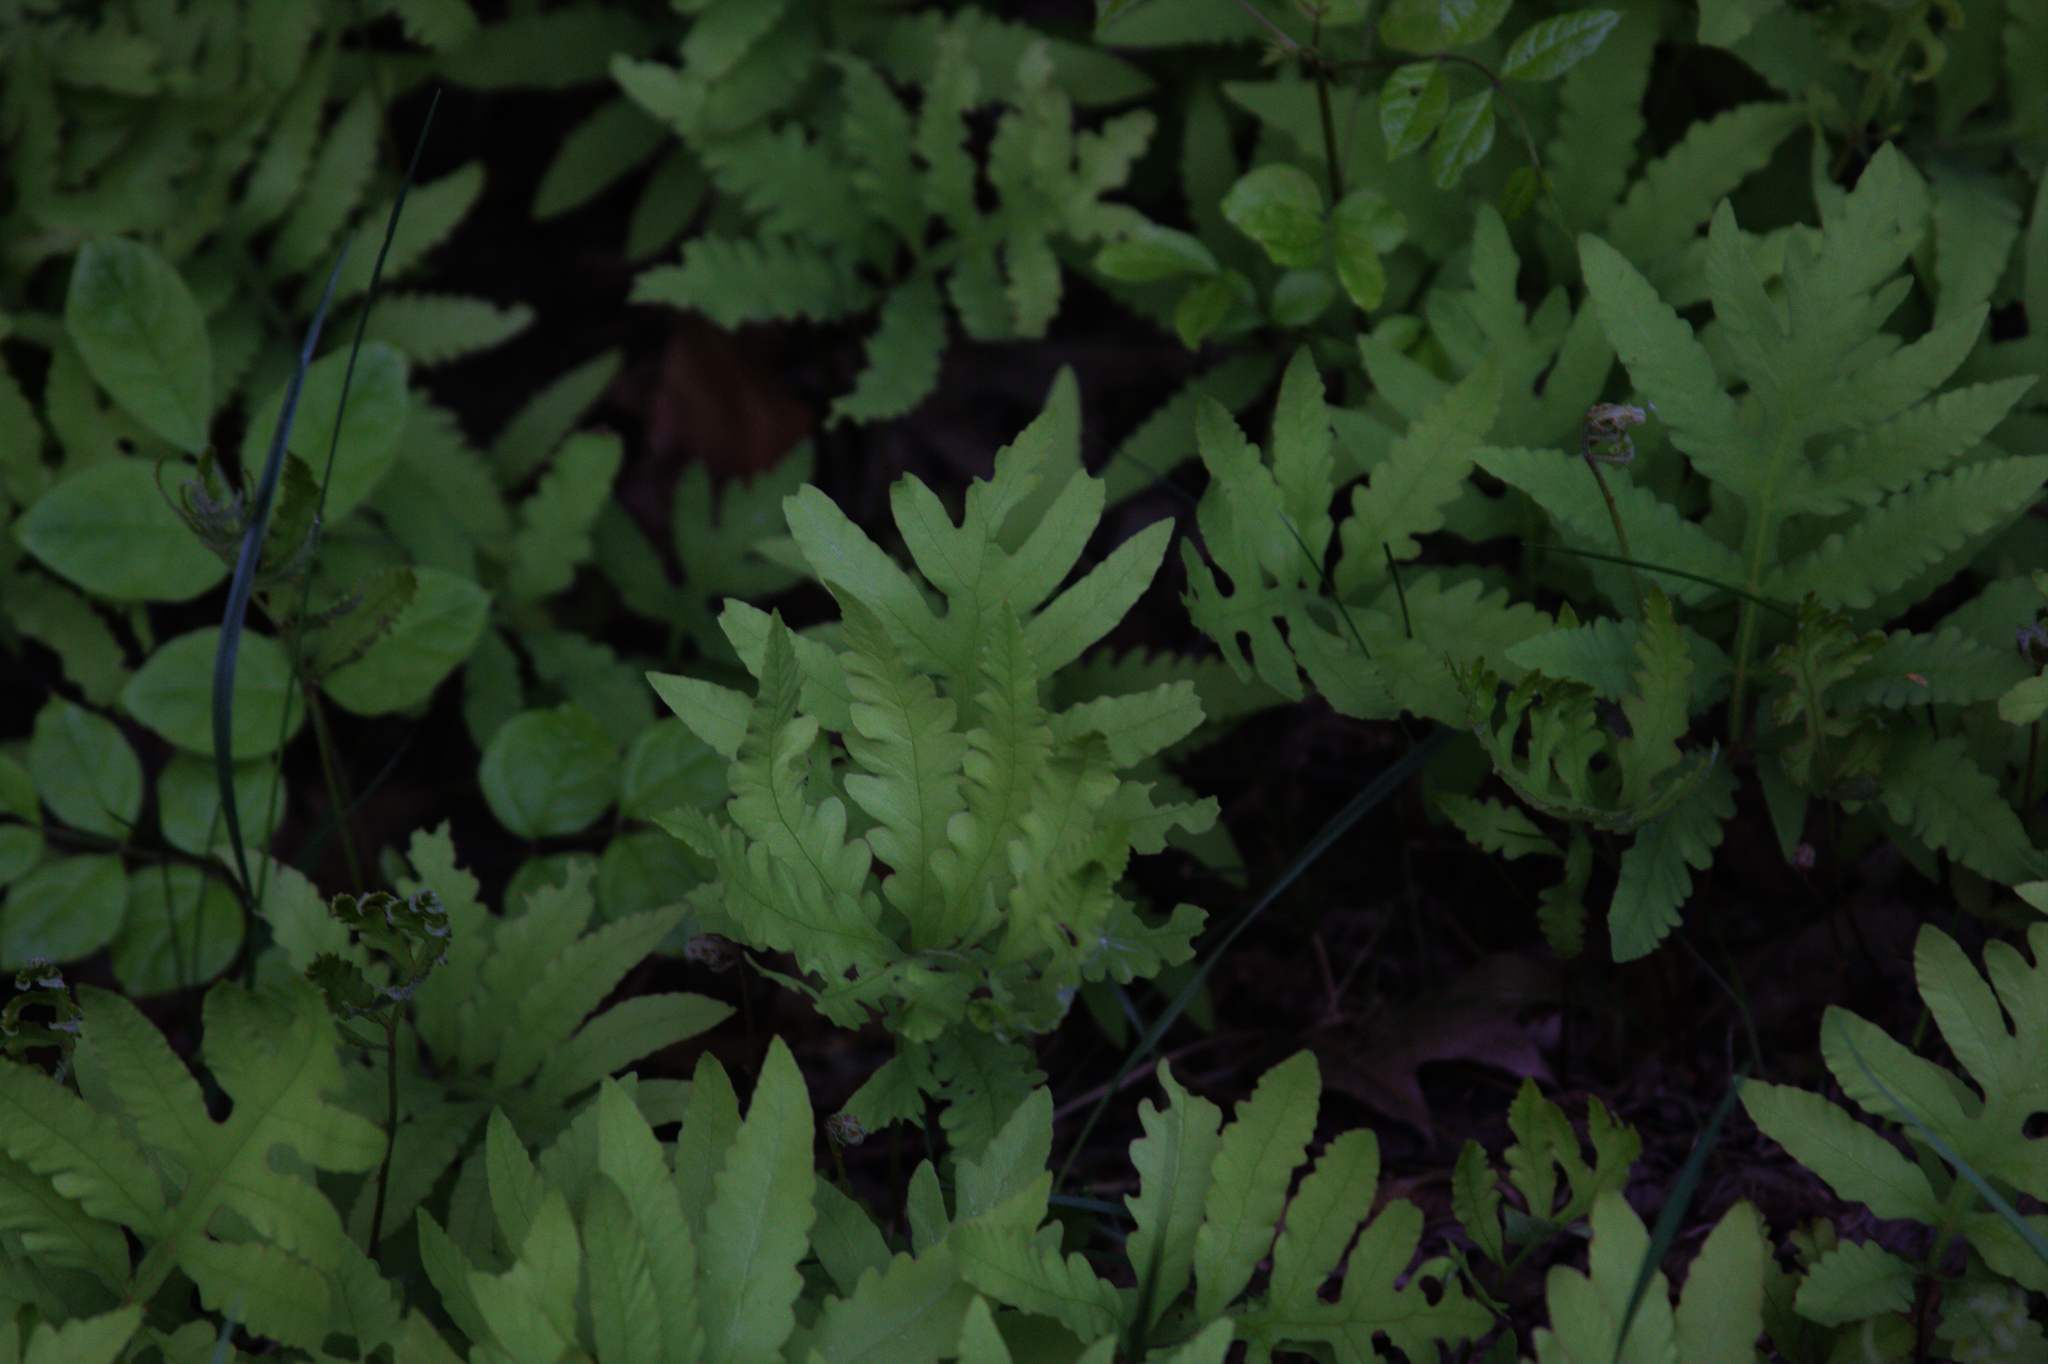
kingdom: Plantae
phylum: Tracheophyta
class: Polypodiopsida
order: Polypodiales
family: Onocleaceae
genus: Onoclea
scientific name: Onoclea sensibilis
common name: Sensitive fern
